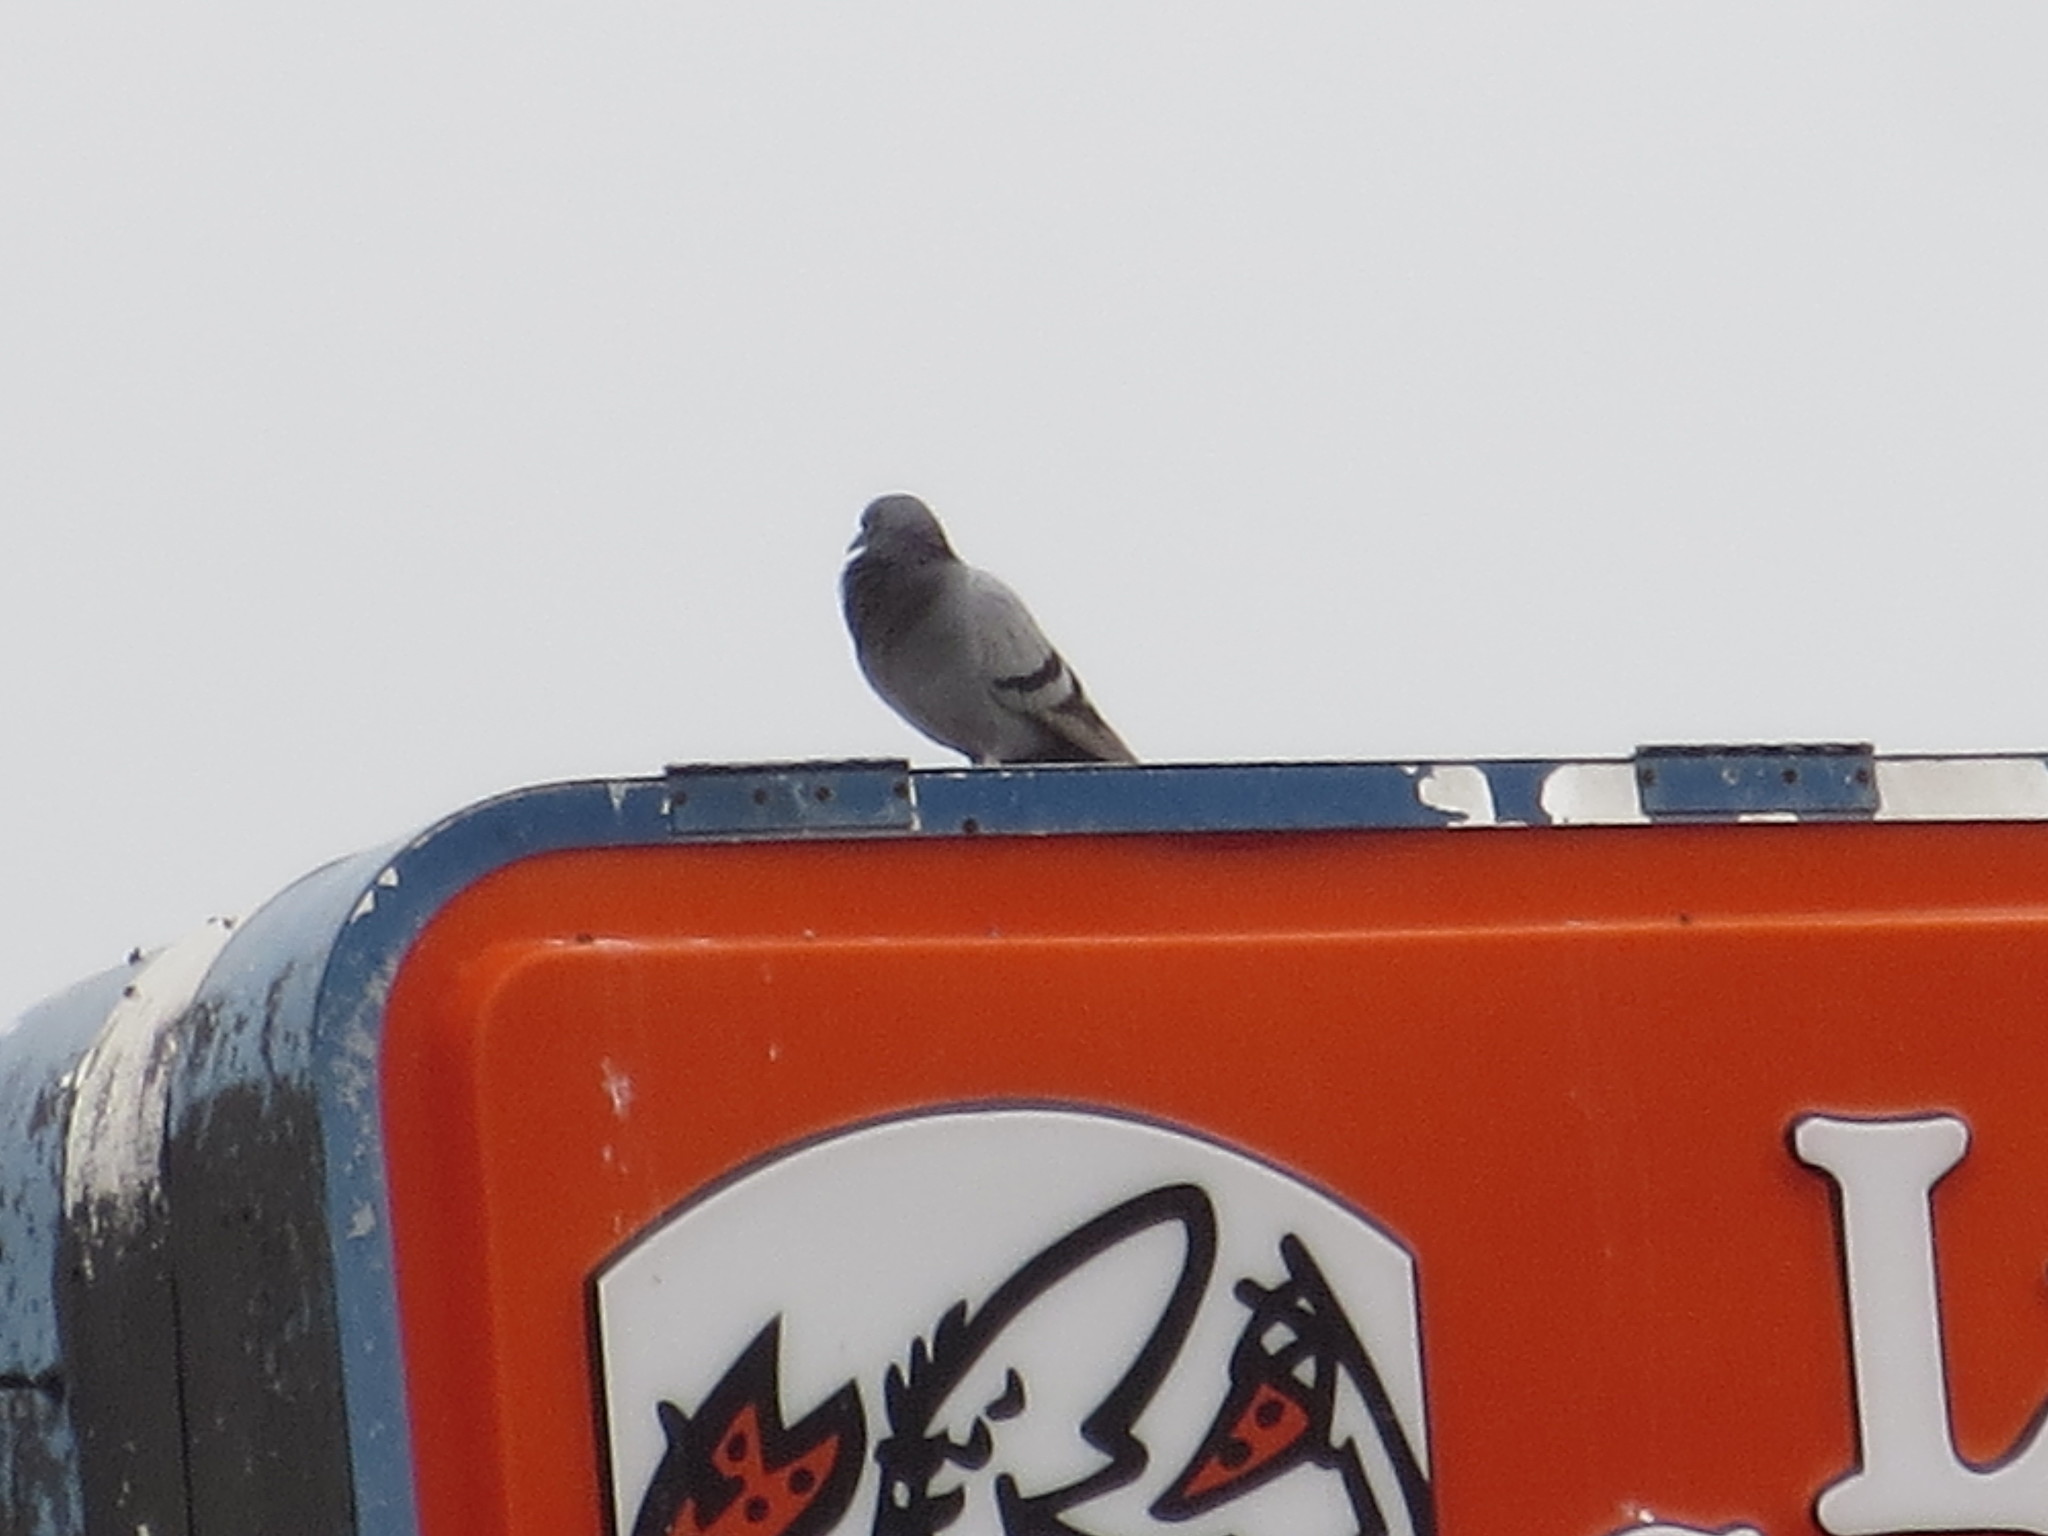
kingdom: Animalia
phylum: Chordata
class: Aves
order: Columbiformes
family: Columbidae
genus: Columba
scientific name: Columba livia
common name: Rock pigeon
